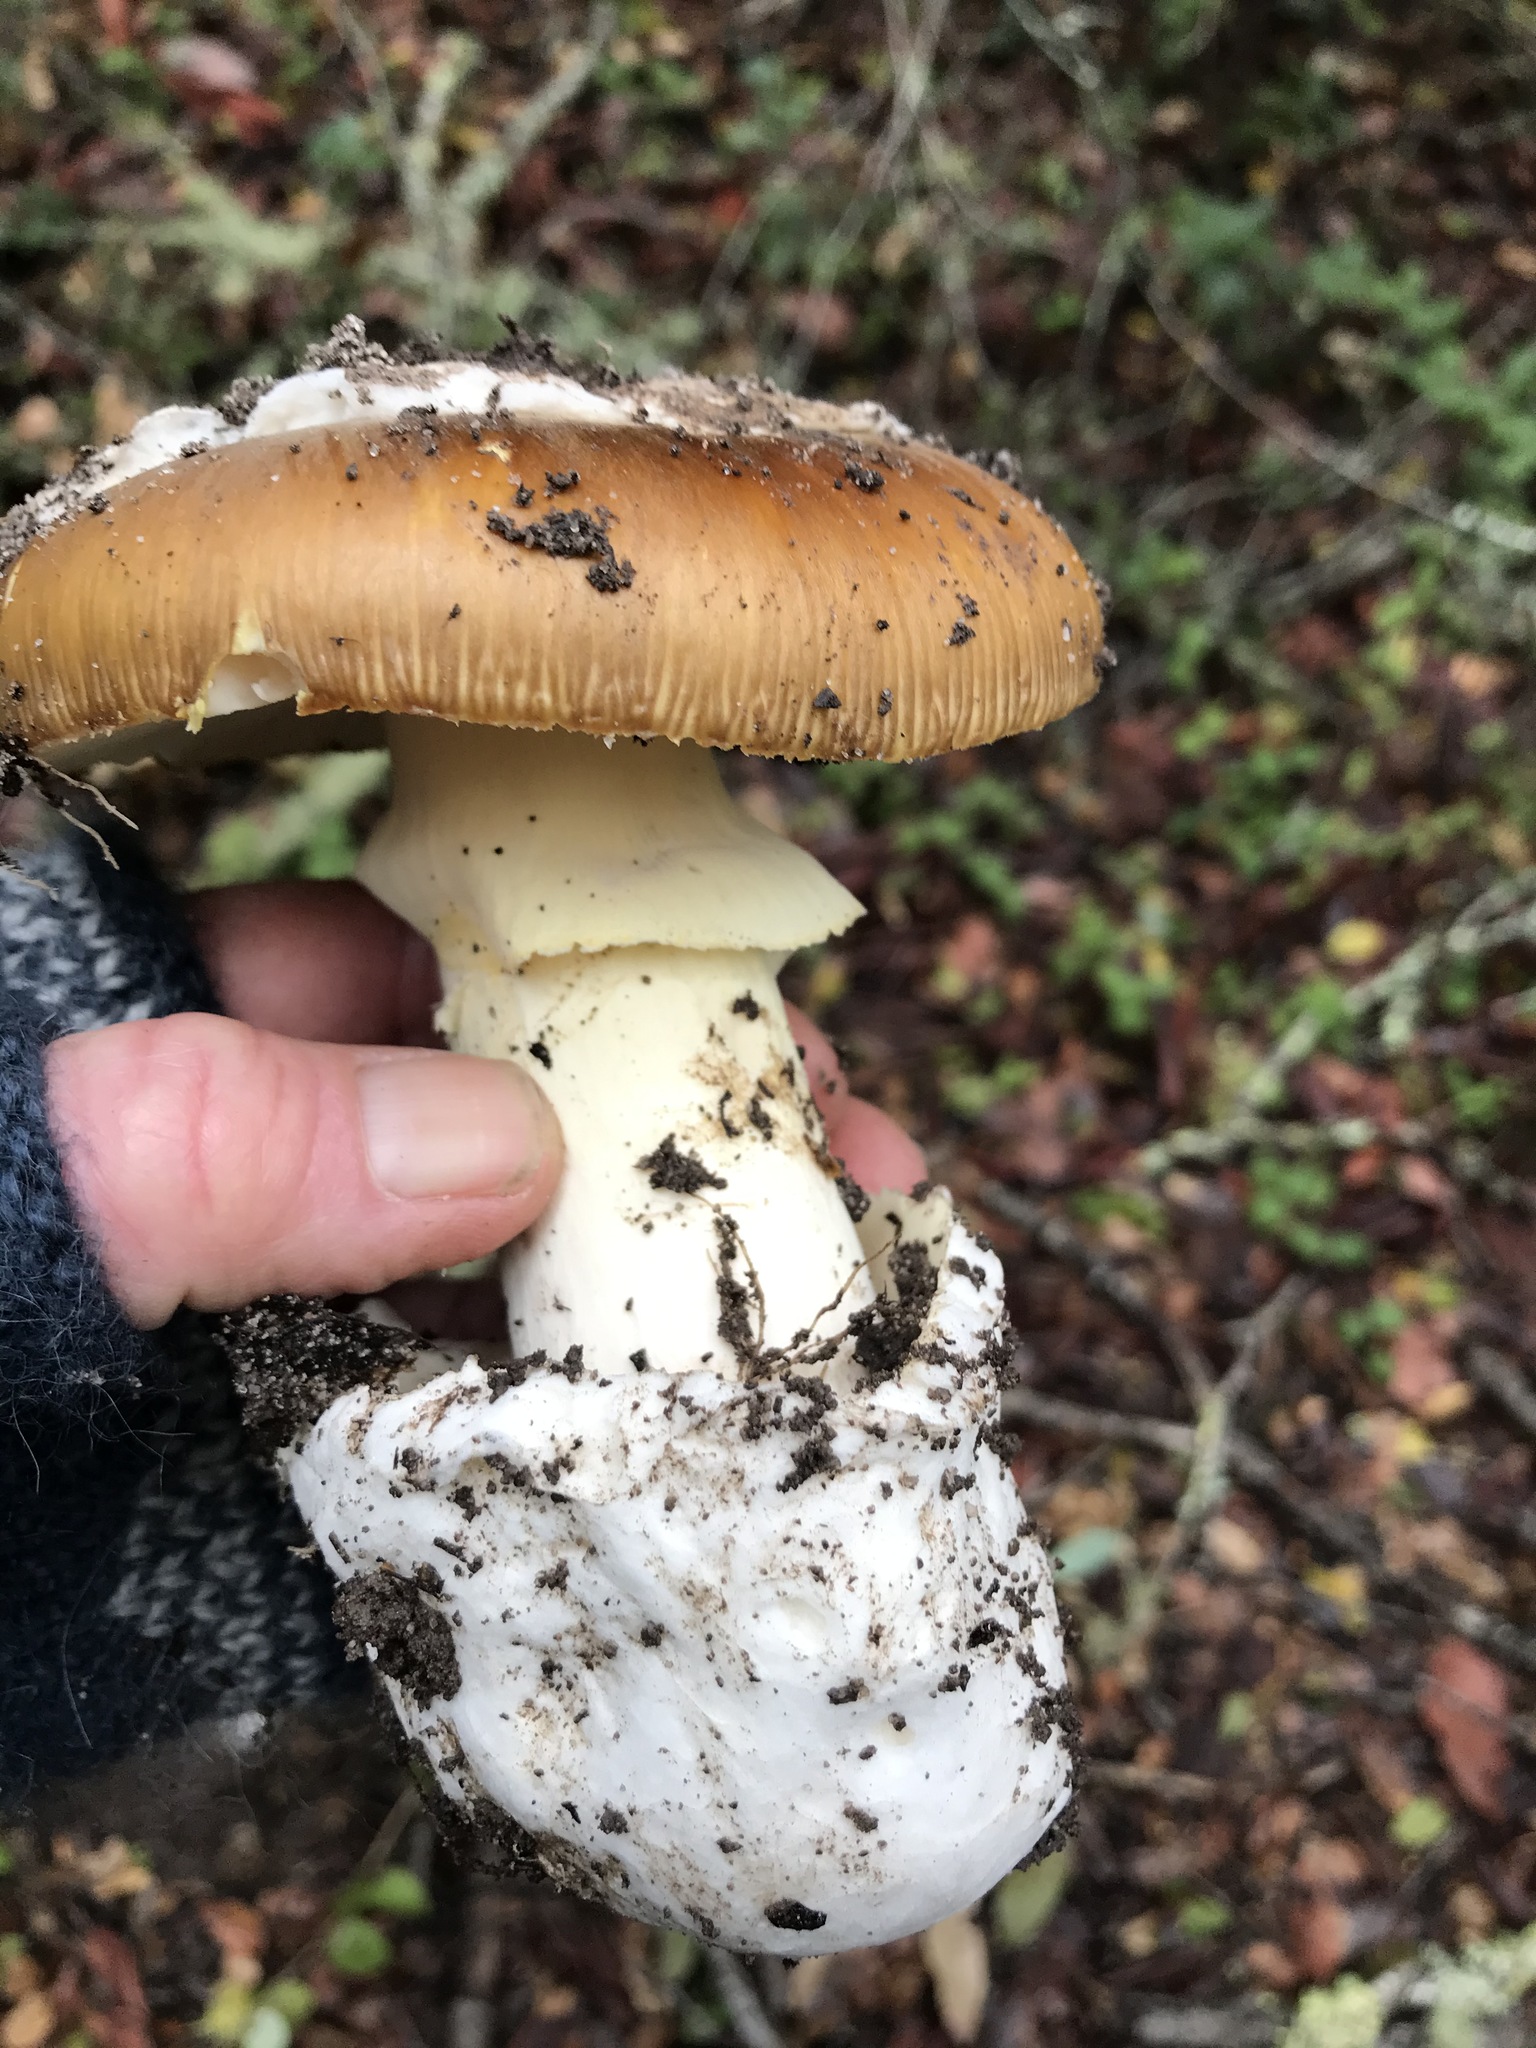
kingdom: Fungi
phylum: Basidiomycota
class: Agaricomycetes
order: Agaricales
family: Amanitaceae
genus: Amanita
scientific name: Amanita calyptroderma
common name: Coccora
